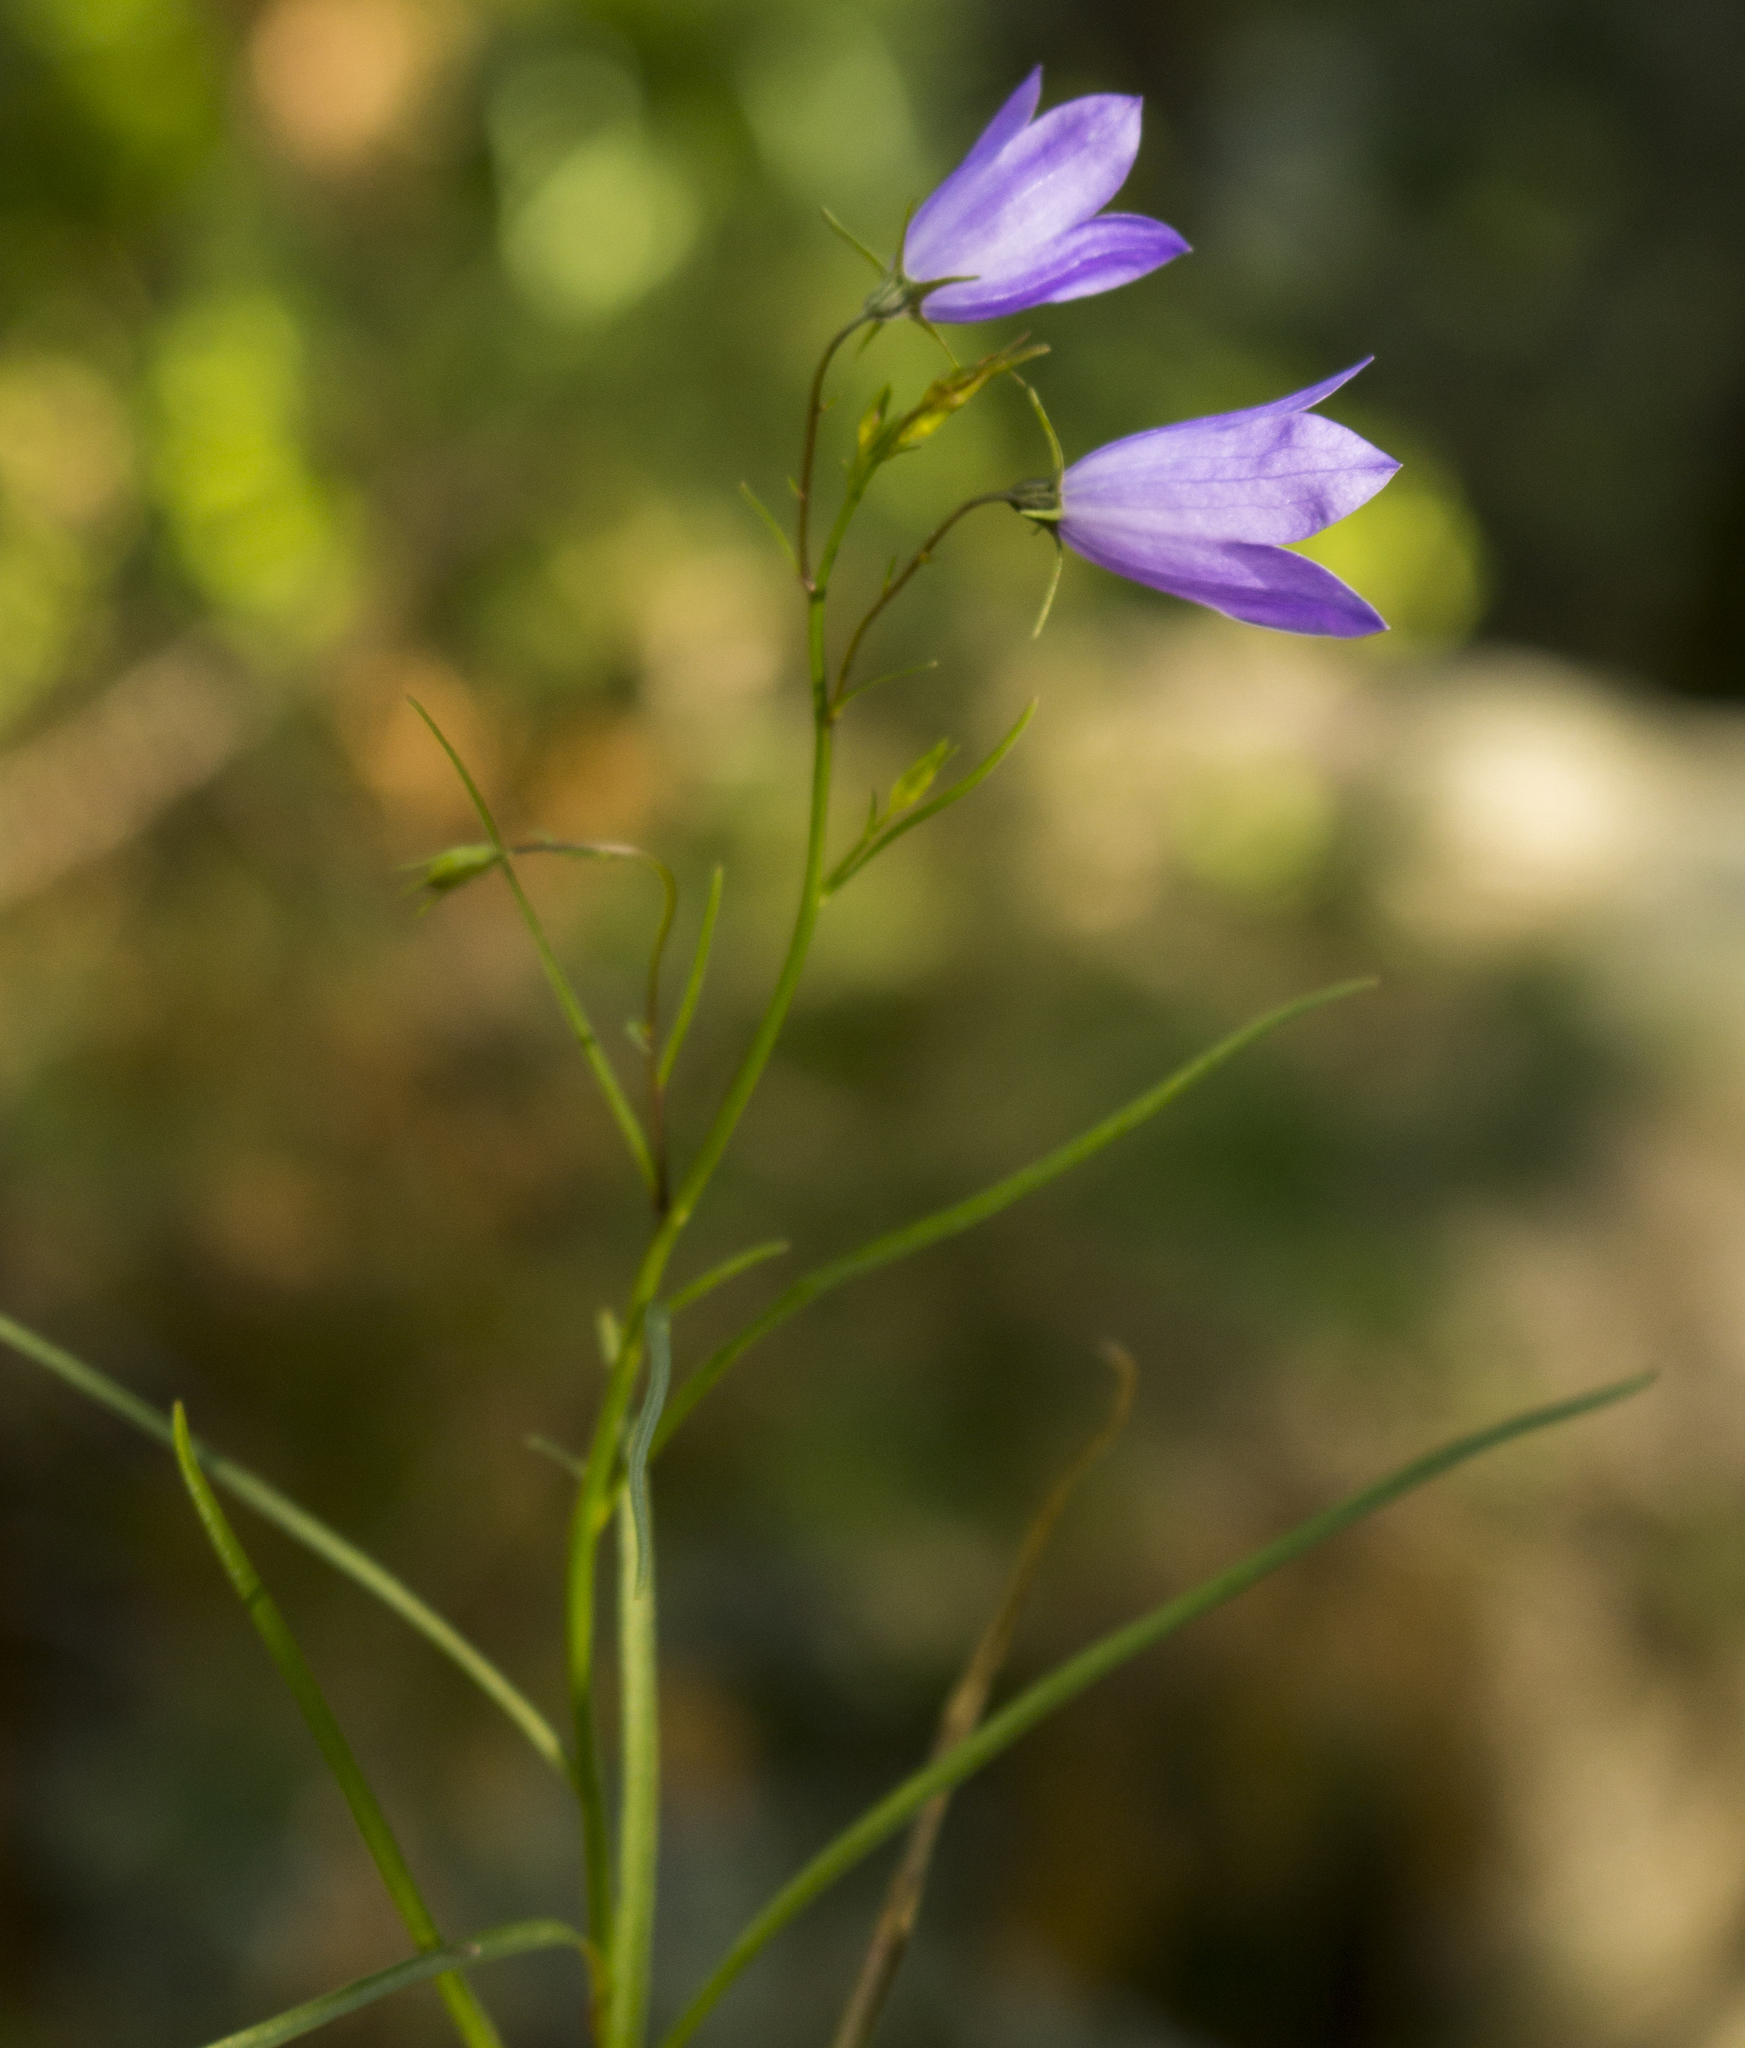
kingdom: Plantae
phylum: Tracheophyta
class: Magnoliopsida
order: Asterales
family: Campanulaceae
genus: Campanula
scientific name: Campanula intercedens
